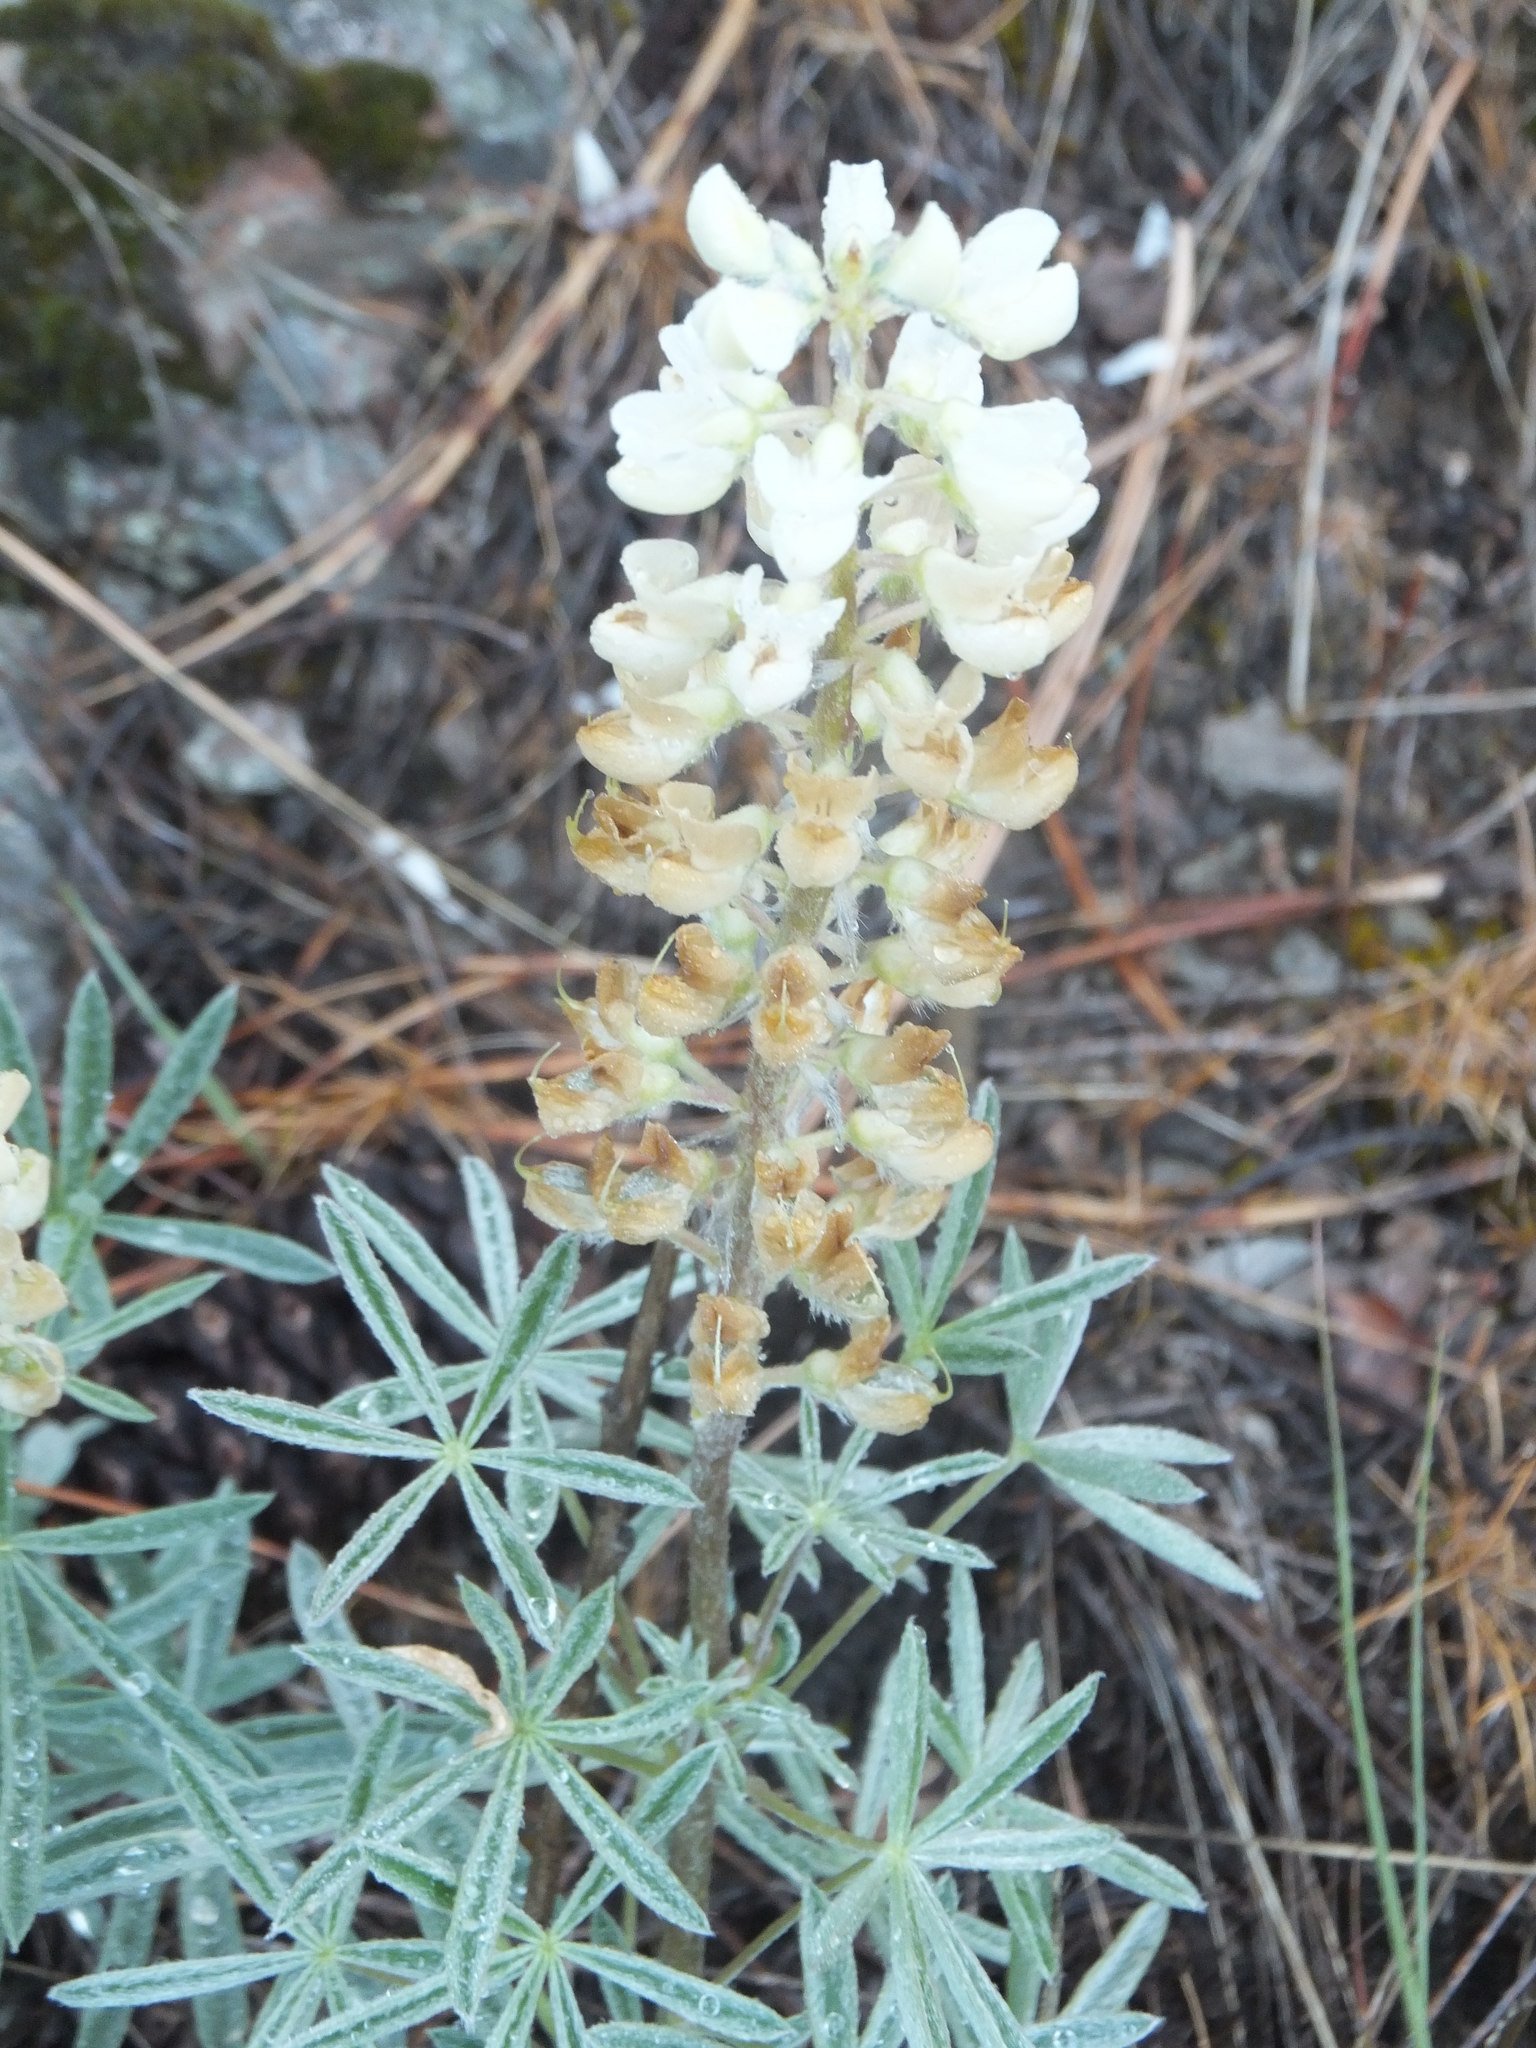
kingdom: Plantae
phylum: Tracheophyta
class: Magnoliopsida
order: Fabales
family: Fabaceae
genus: Lupinus
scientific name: Lupinus sulphureus
